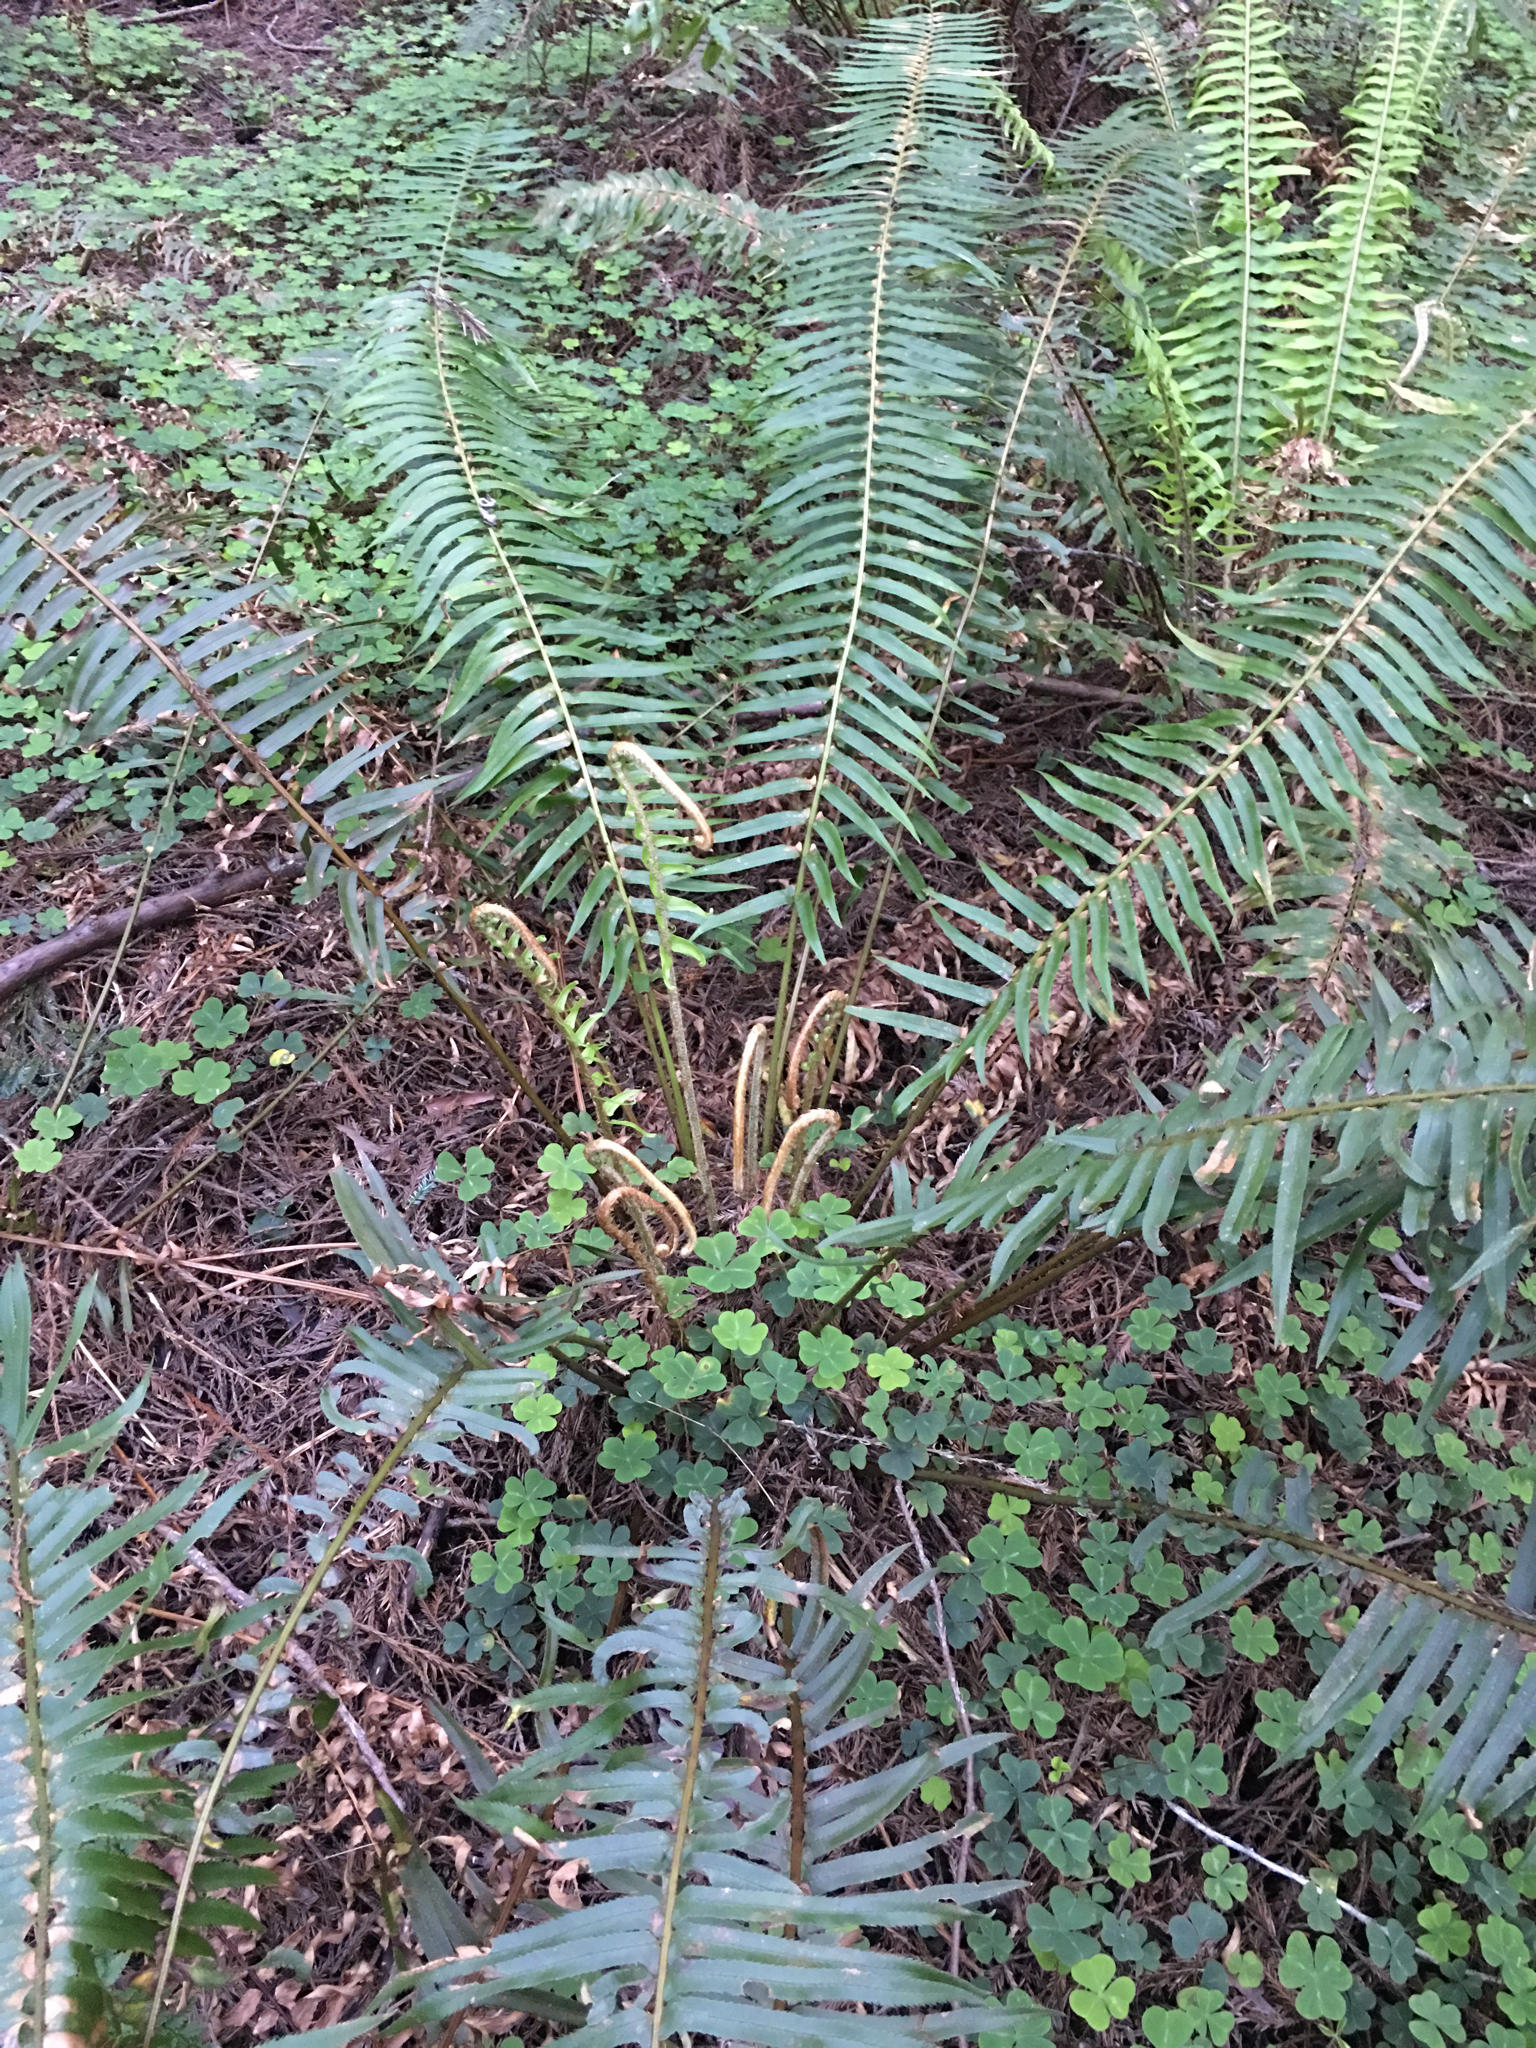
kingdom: Plantae
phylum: Tracheophyta
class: Polypodiopsida
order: Polypodiales
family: Dryopteridaceae
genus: Polystichum
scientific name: Polystichum munitum
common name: Western sword-fern
